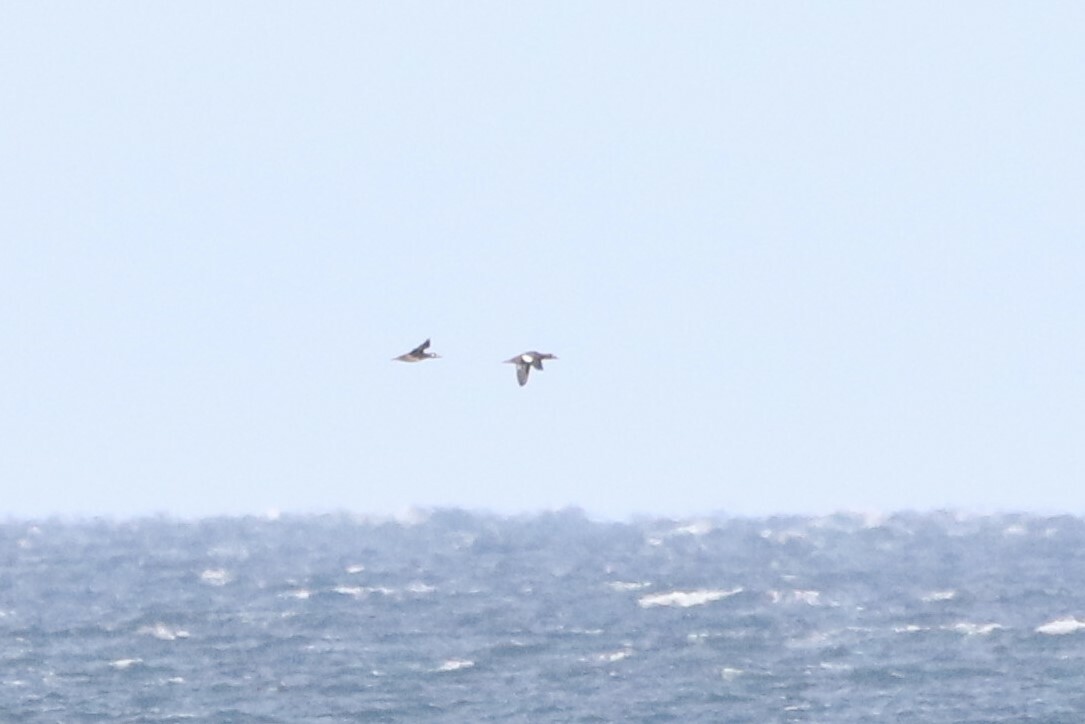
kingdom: Animalia
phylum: Chordata
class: Aves
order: Anseriformes
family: Anatidae
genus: Melanitta
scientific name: Melanitta deglandi
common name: White-winged scoter
